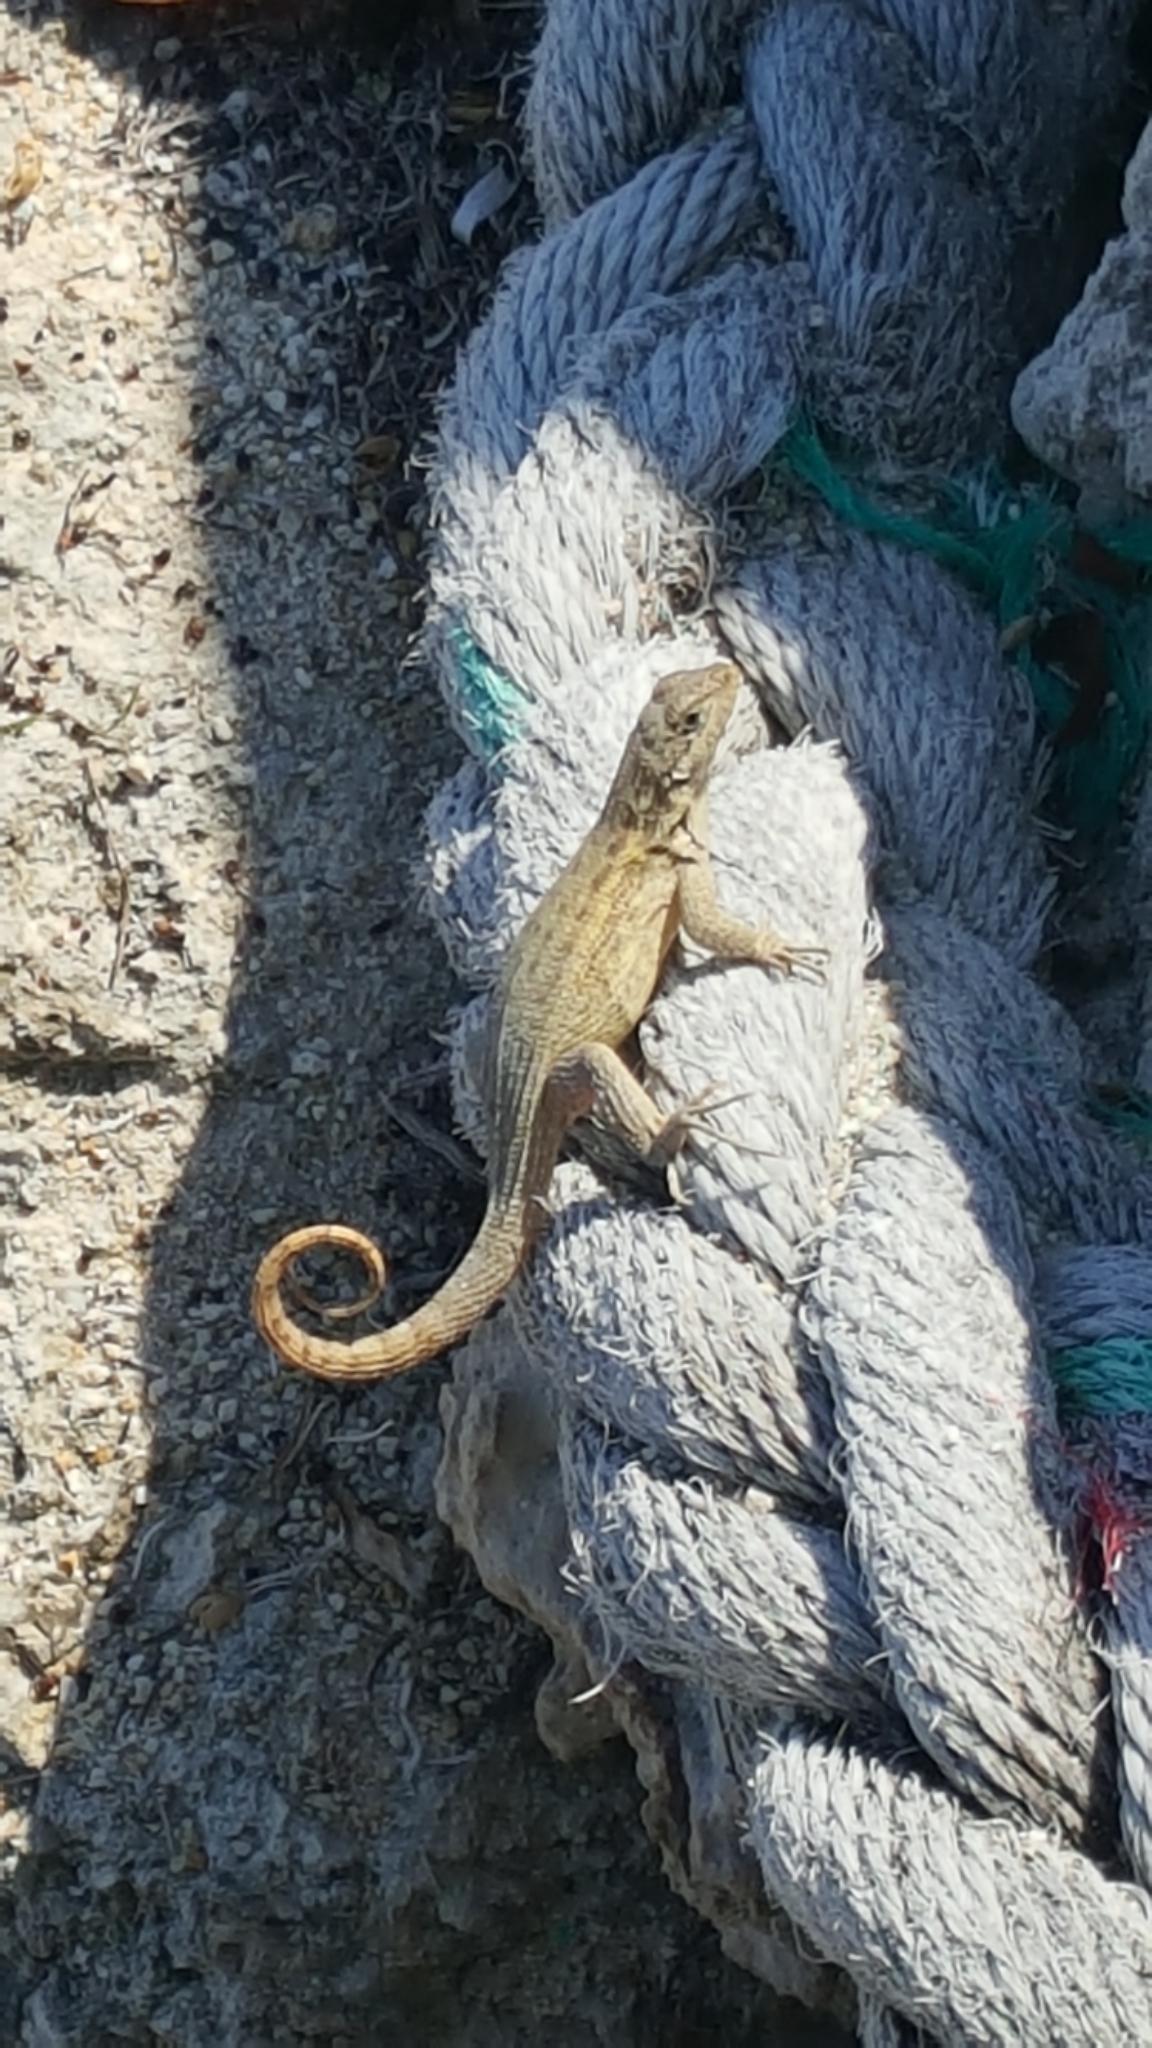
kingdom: Animalia
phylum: Chordata
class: Squamata
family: Leiocephalidae
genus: Leiocephalus
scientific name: Leiocephalus carinatus
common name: Northern curly-tailed lizard
